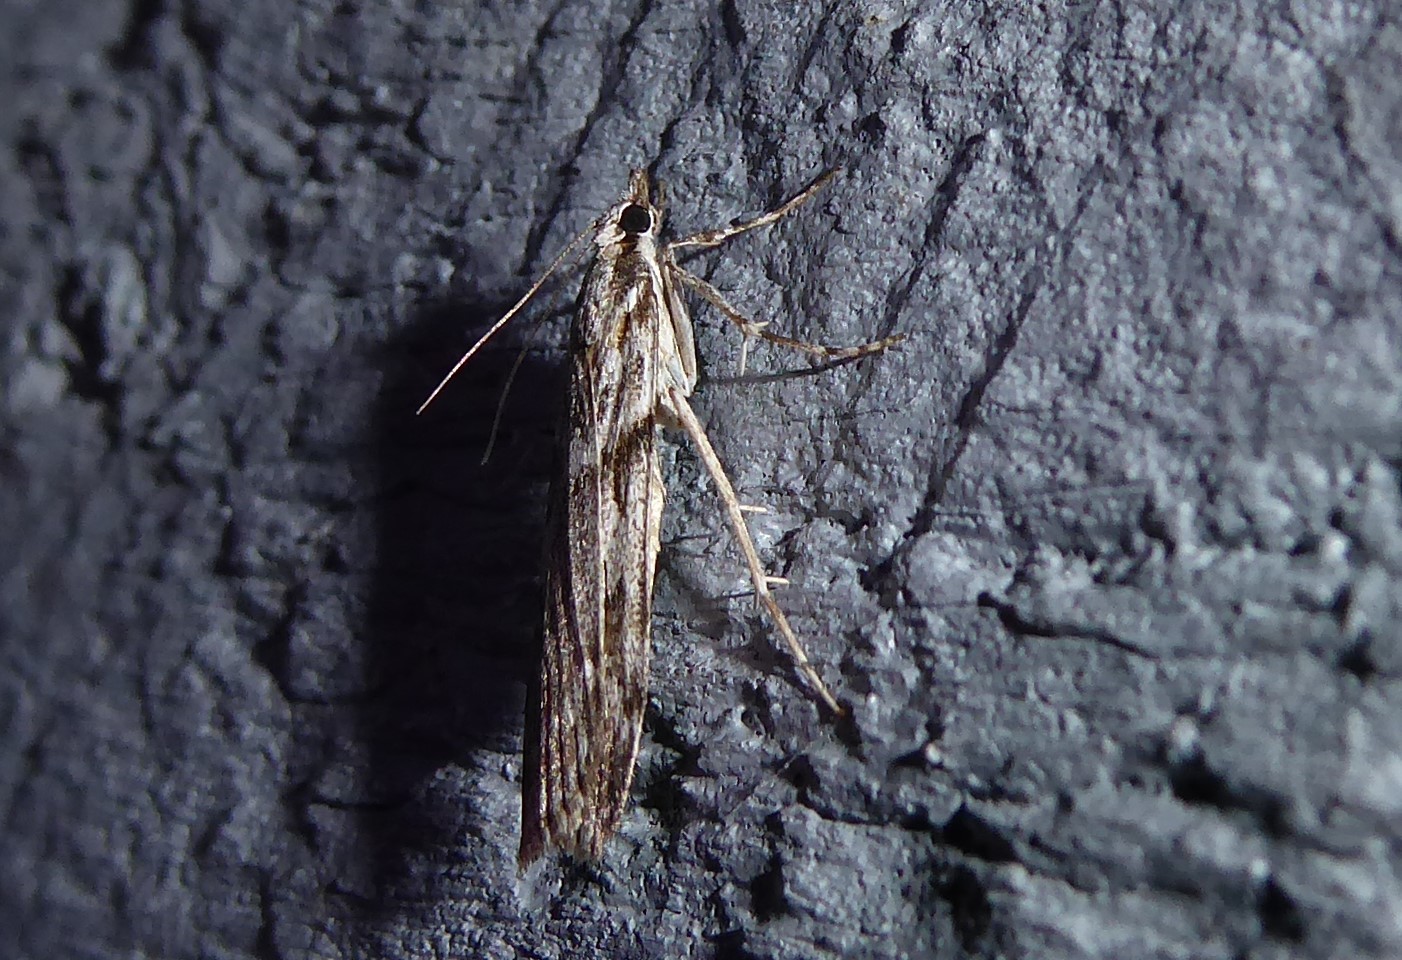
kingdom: Animalia
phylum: Arthropoda
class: Insecta
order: Lepidoptera
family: Crambidae
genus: Scoparia
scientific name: Scoparia halopis
